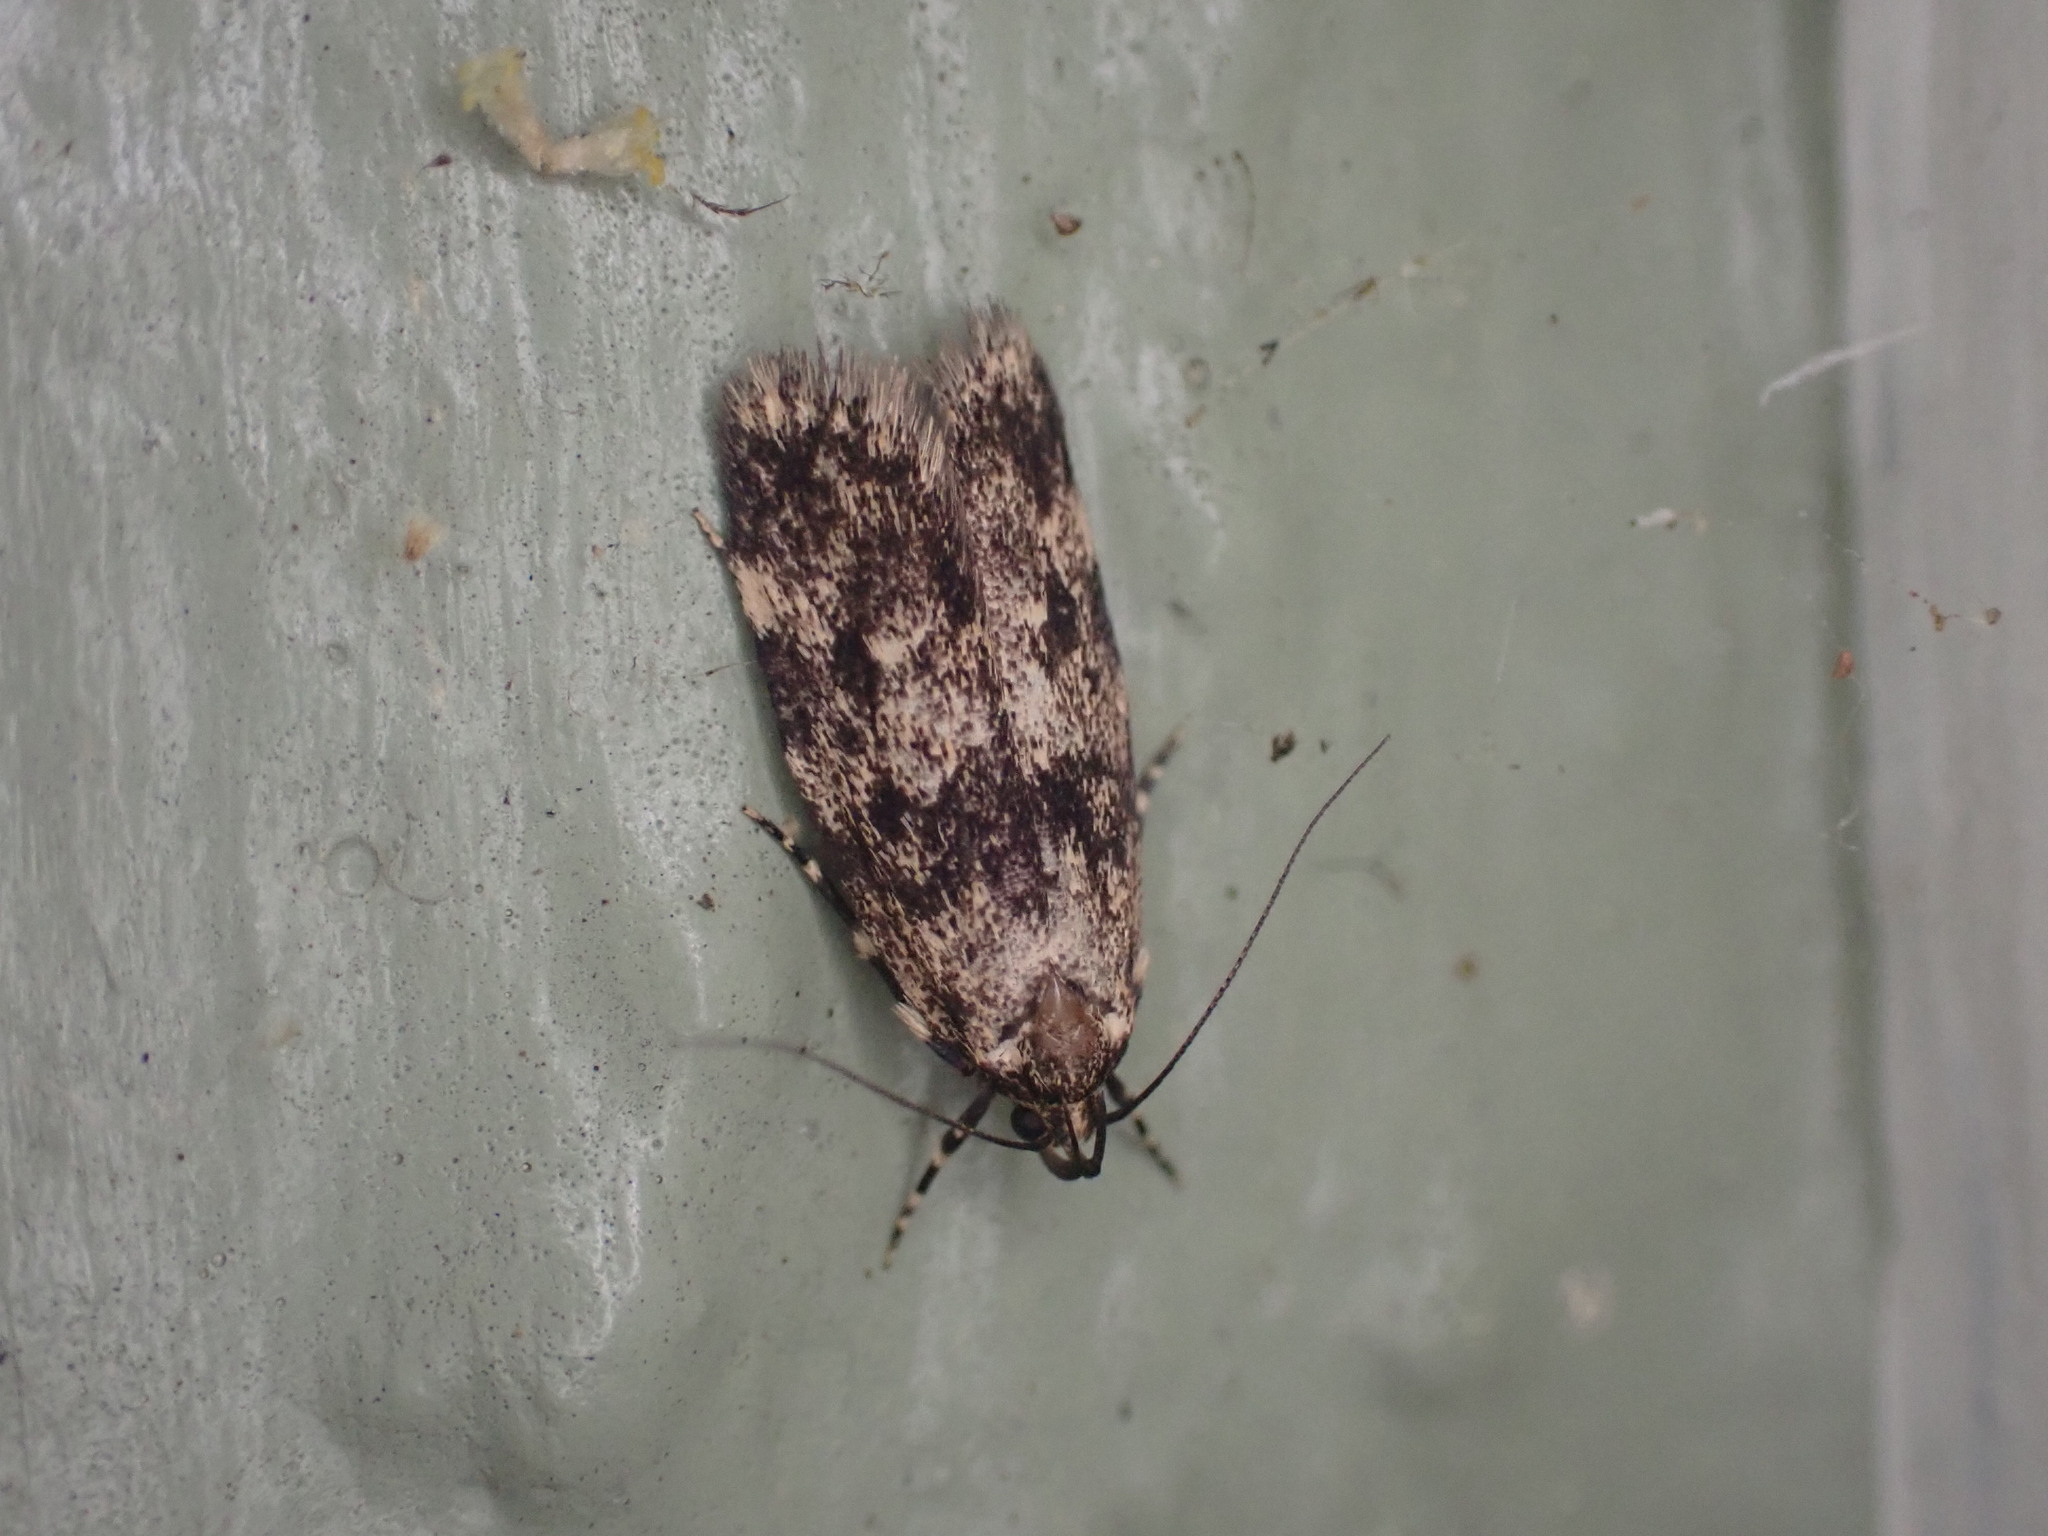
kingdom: Animalia
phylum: Arthropoda
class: Insecta
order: Lepidoptera
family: Oecophoridae
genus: Barea
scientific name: Barea codrella
